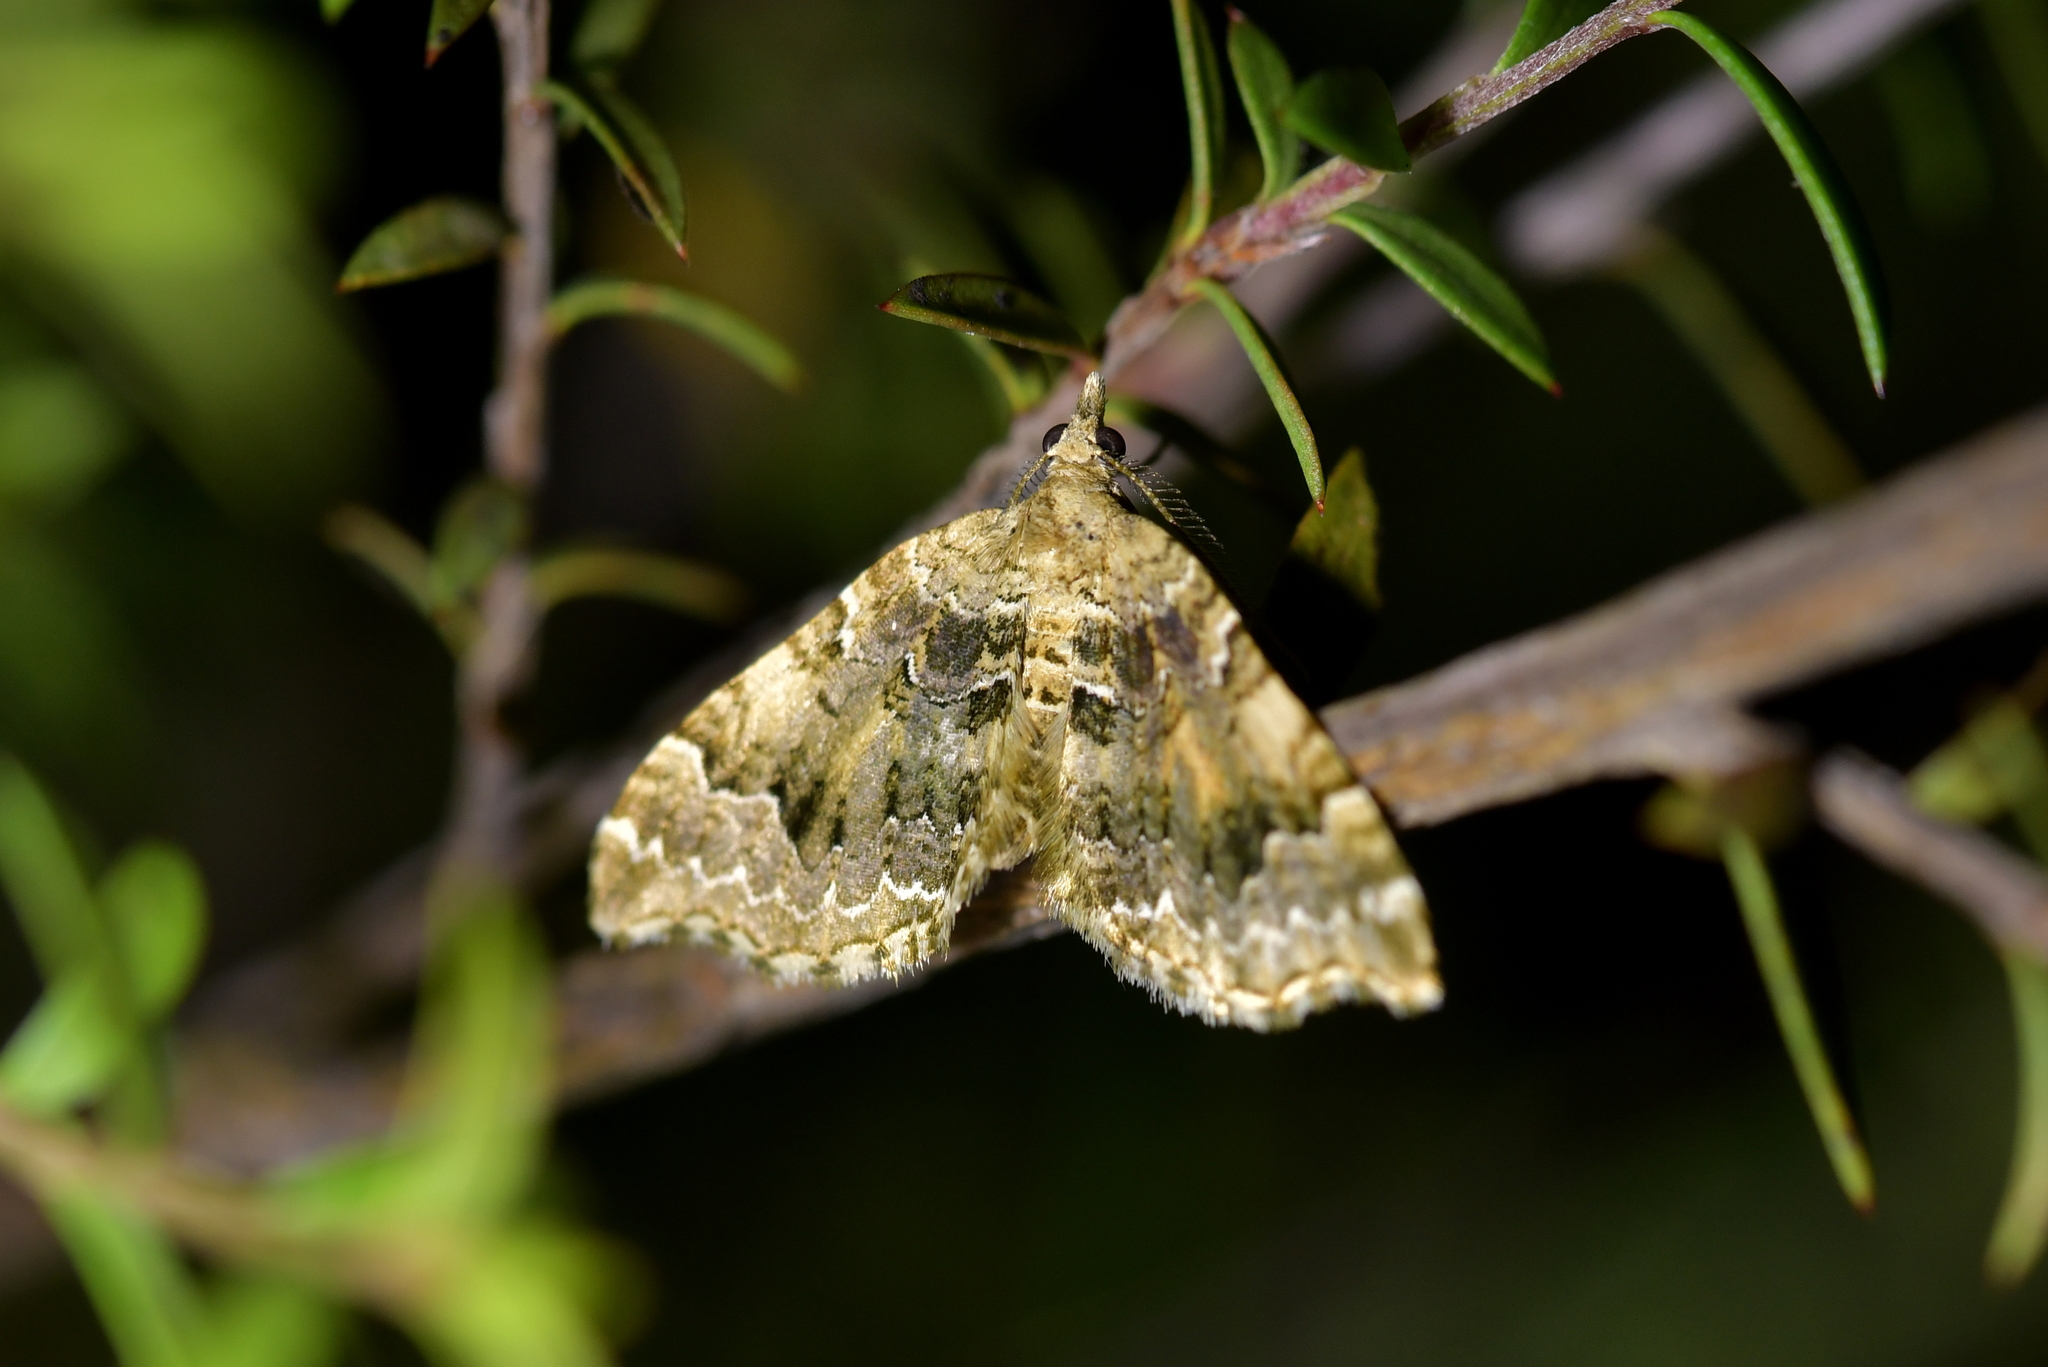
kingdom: Animalia
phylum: Arthropoda
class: Insecta
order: Lepidoptera
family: Geometridae
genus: Helastia
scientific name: Helastia cymozeucta
